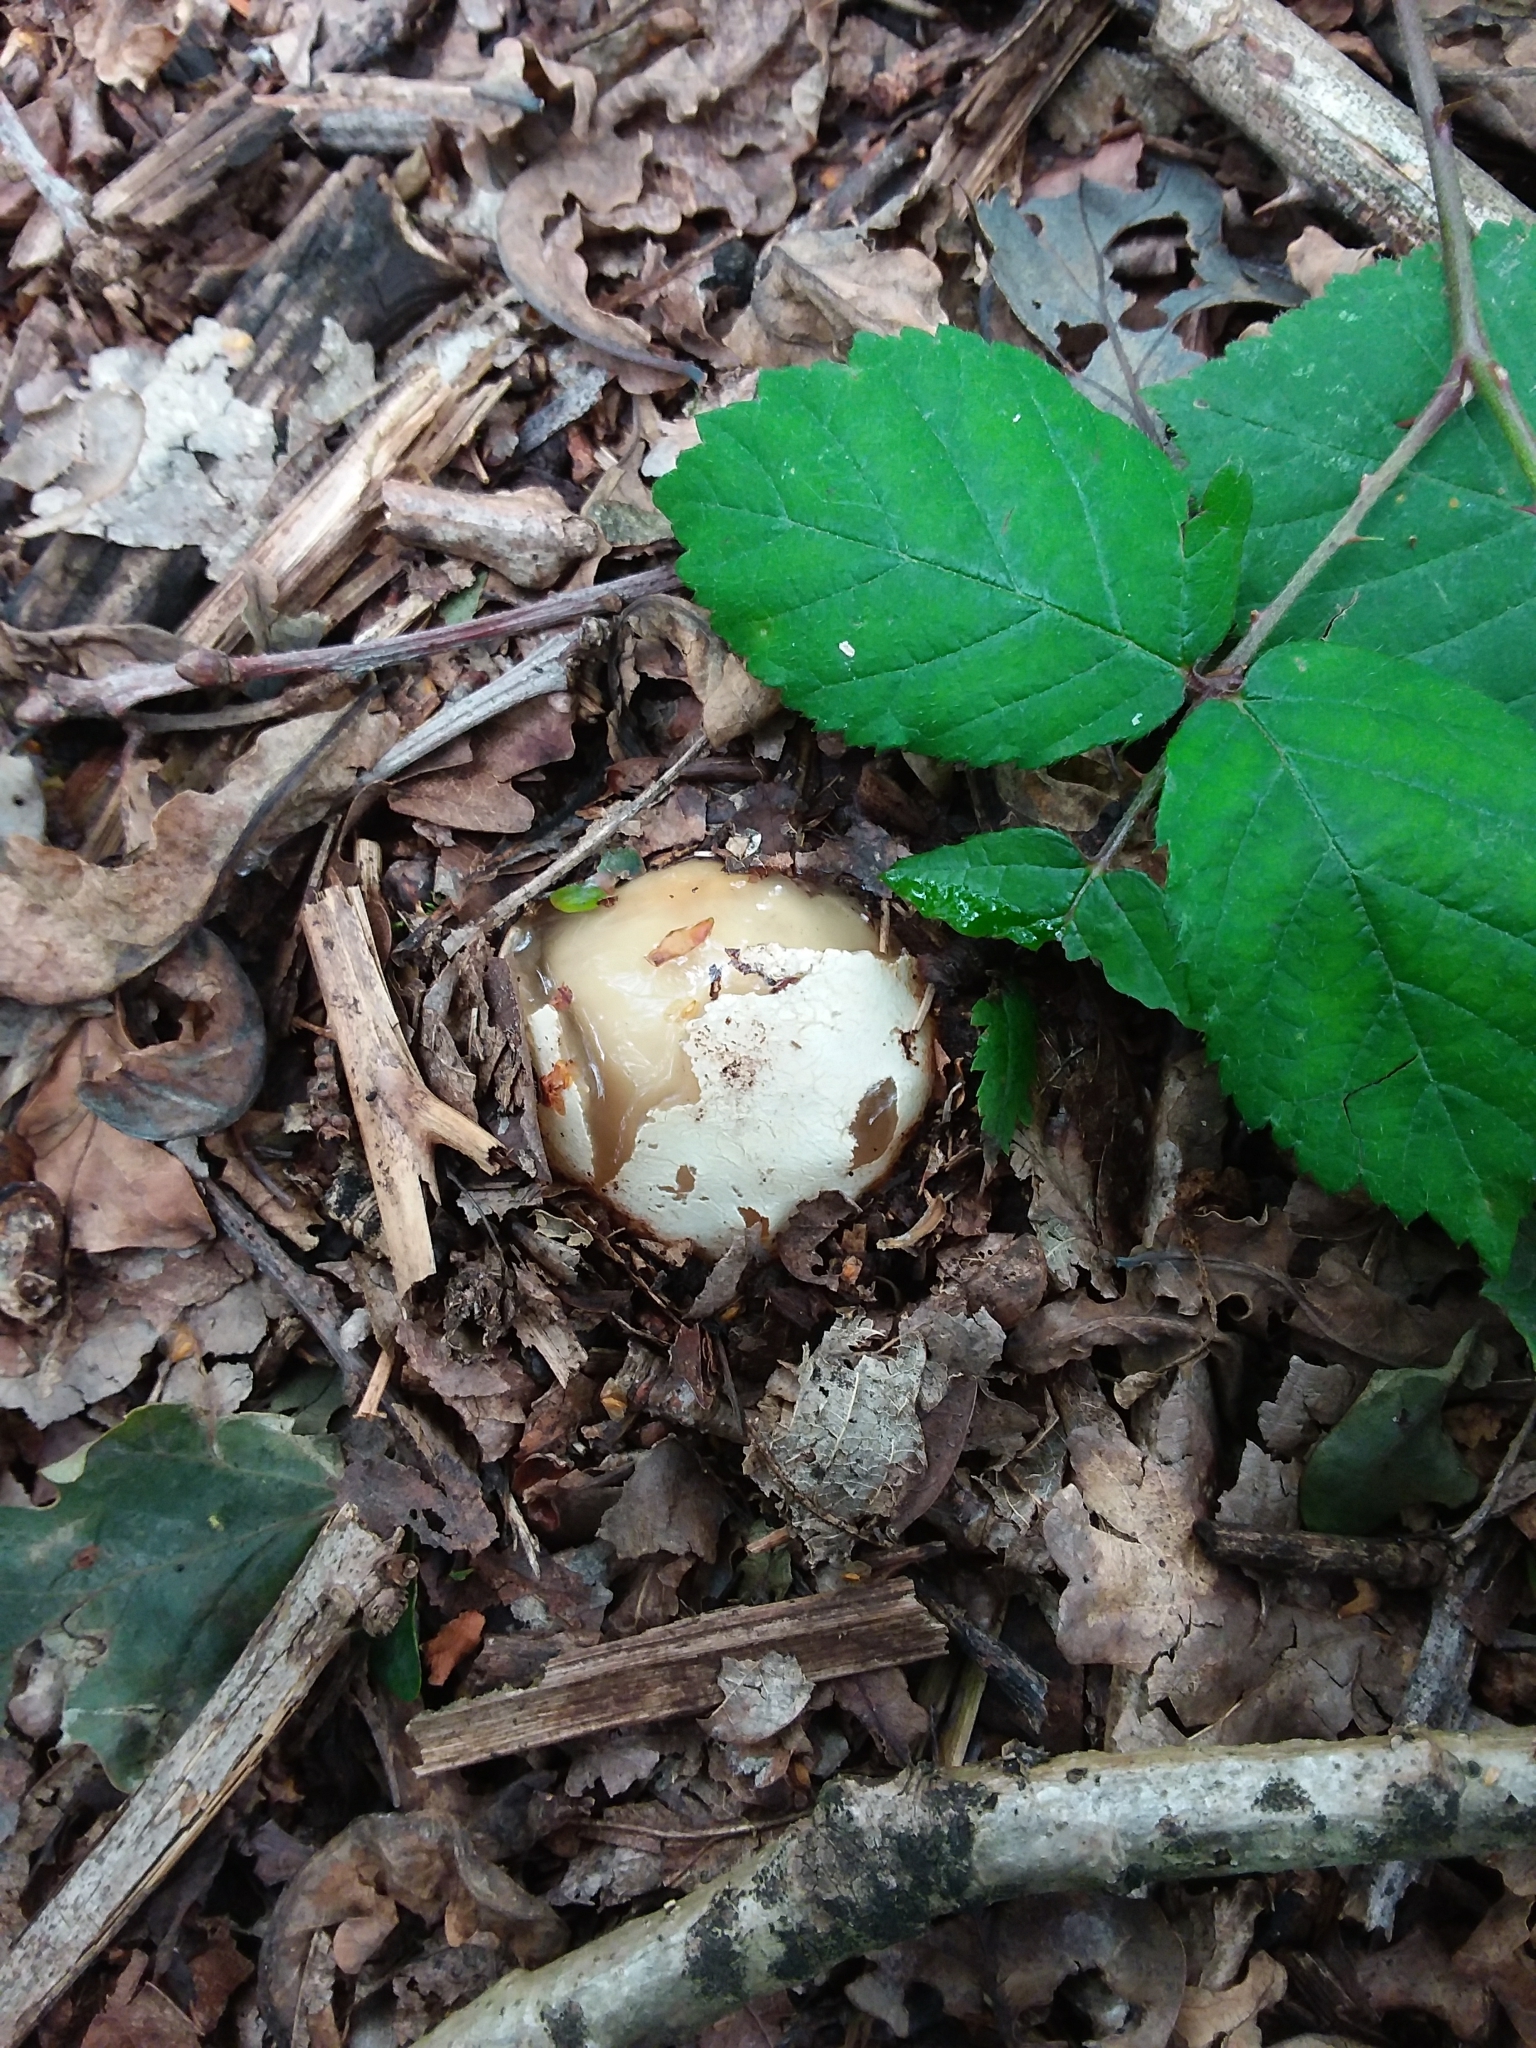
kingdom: Fungi
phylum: Basidiomycota
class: Agaricomycetes
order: Phallales
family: Phallaceae
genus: Phallus
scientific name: Phallus impudicus
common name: Common stinkhorn
